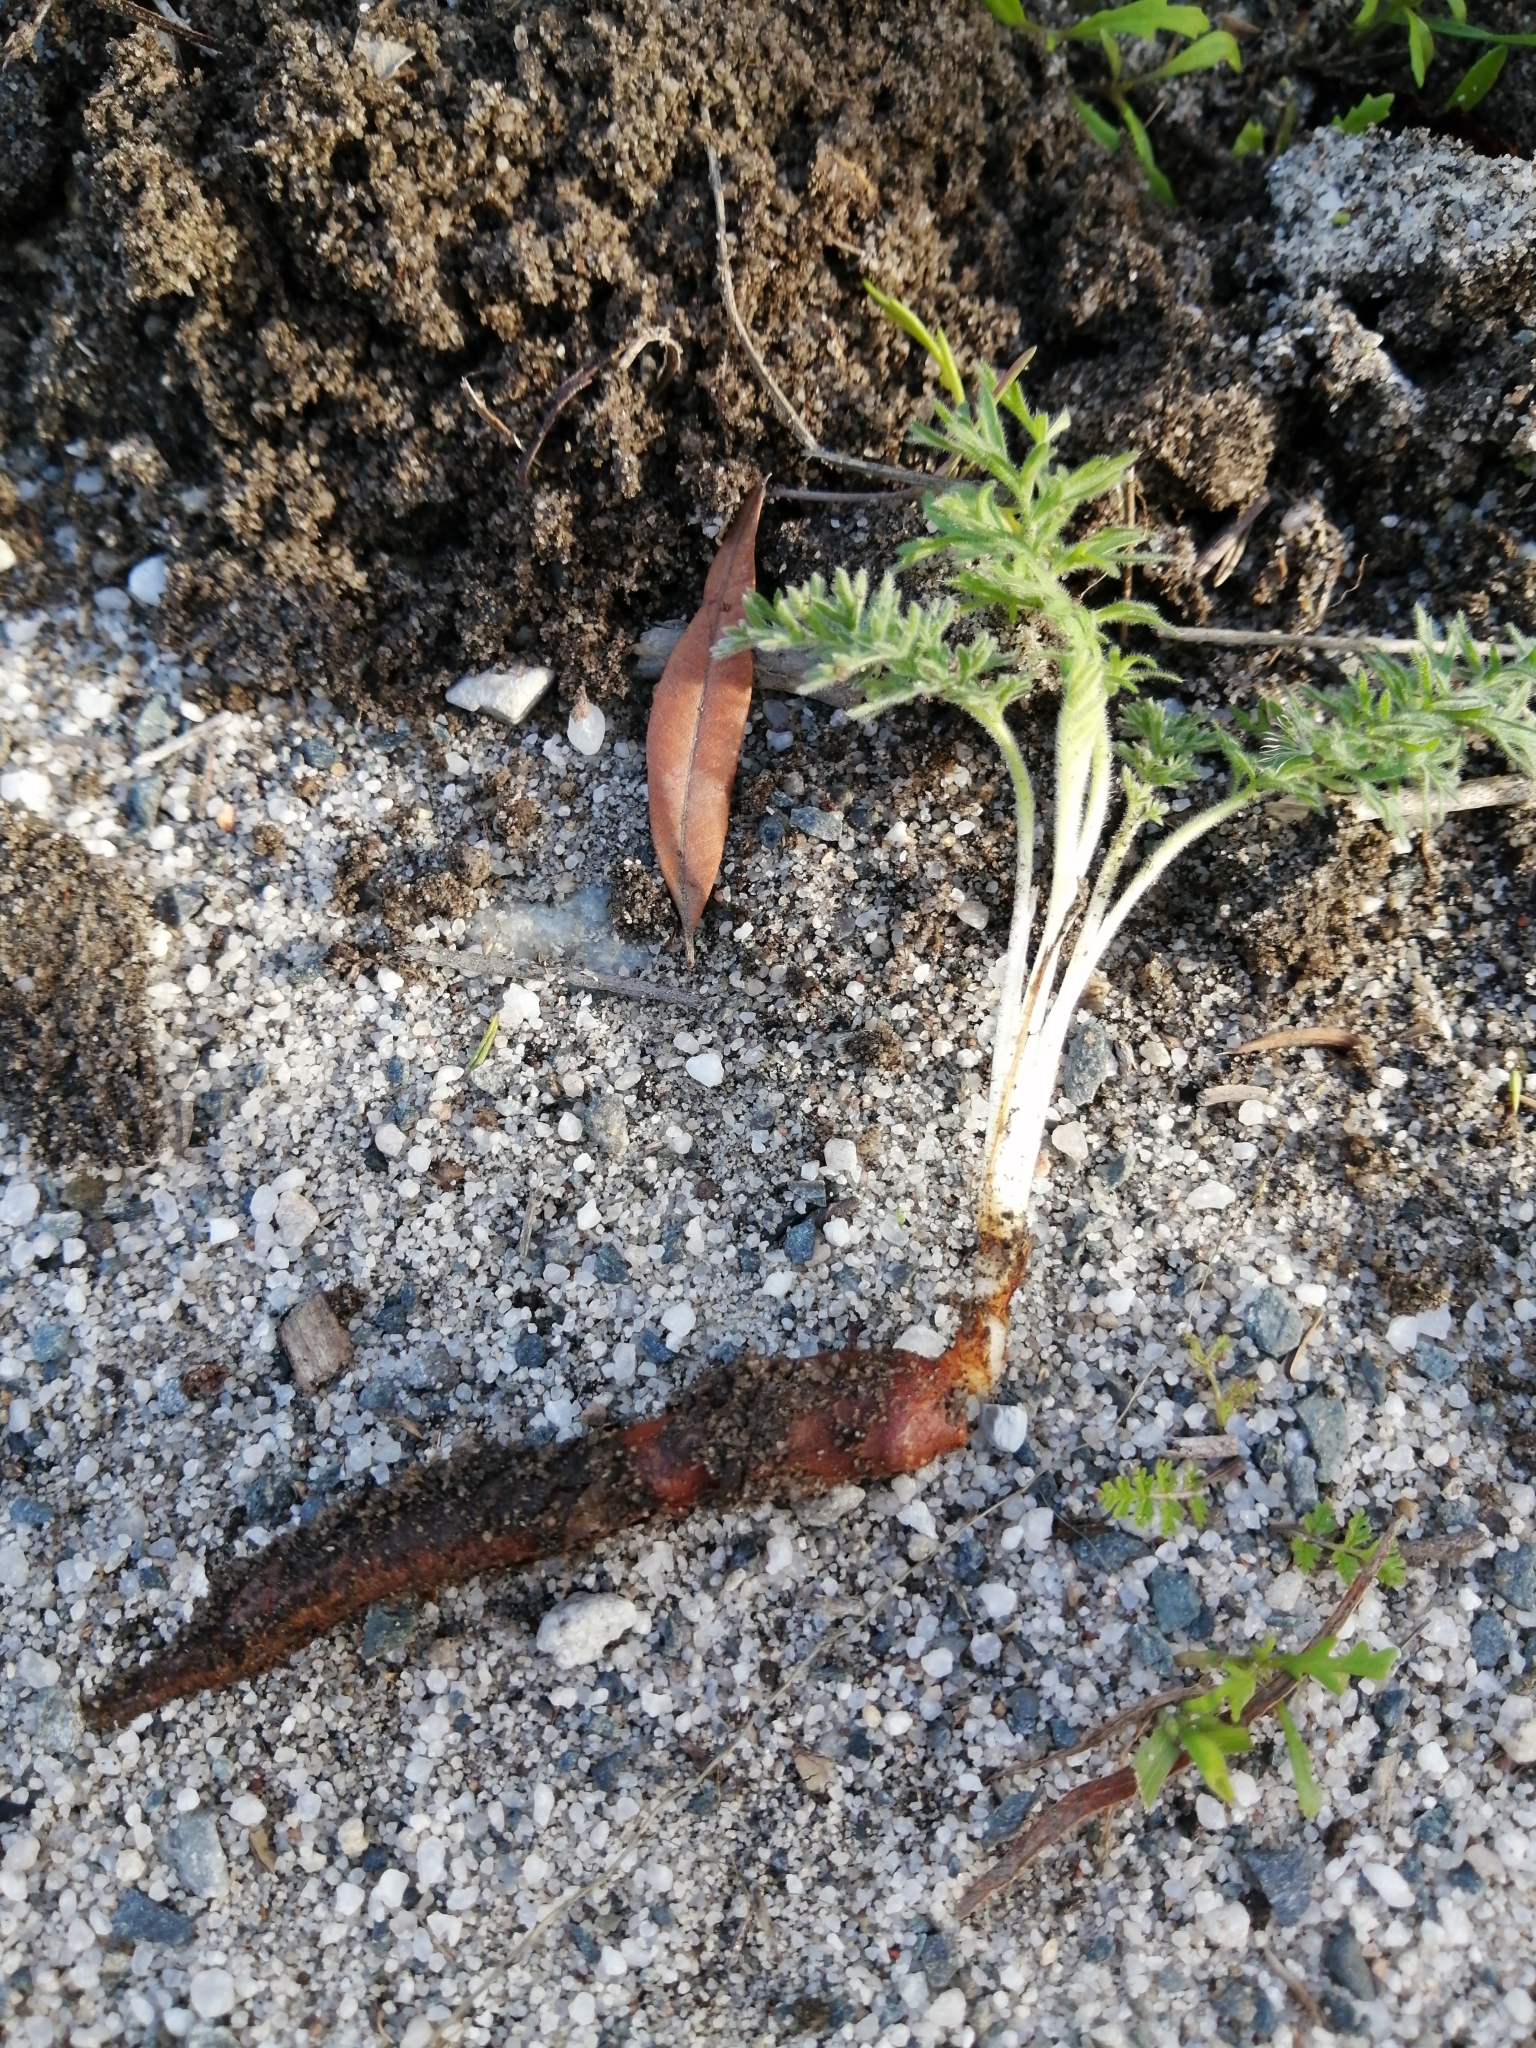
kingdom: Plantae
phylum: Tracheophyta
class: Magnoliopsida
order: Geraniales
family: Geraniaceae
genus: Pelargonium
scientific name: Pelargonium rapaceum
